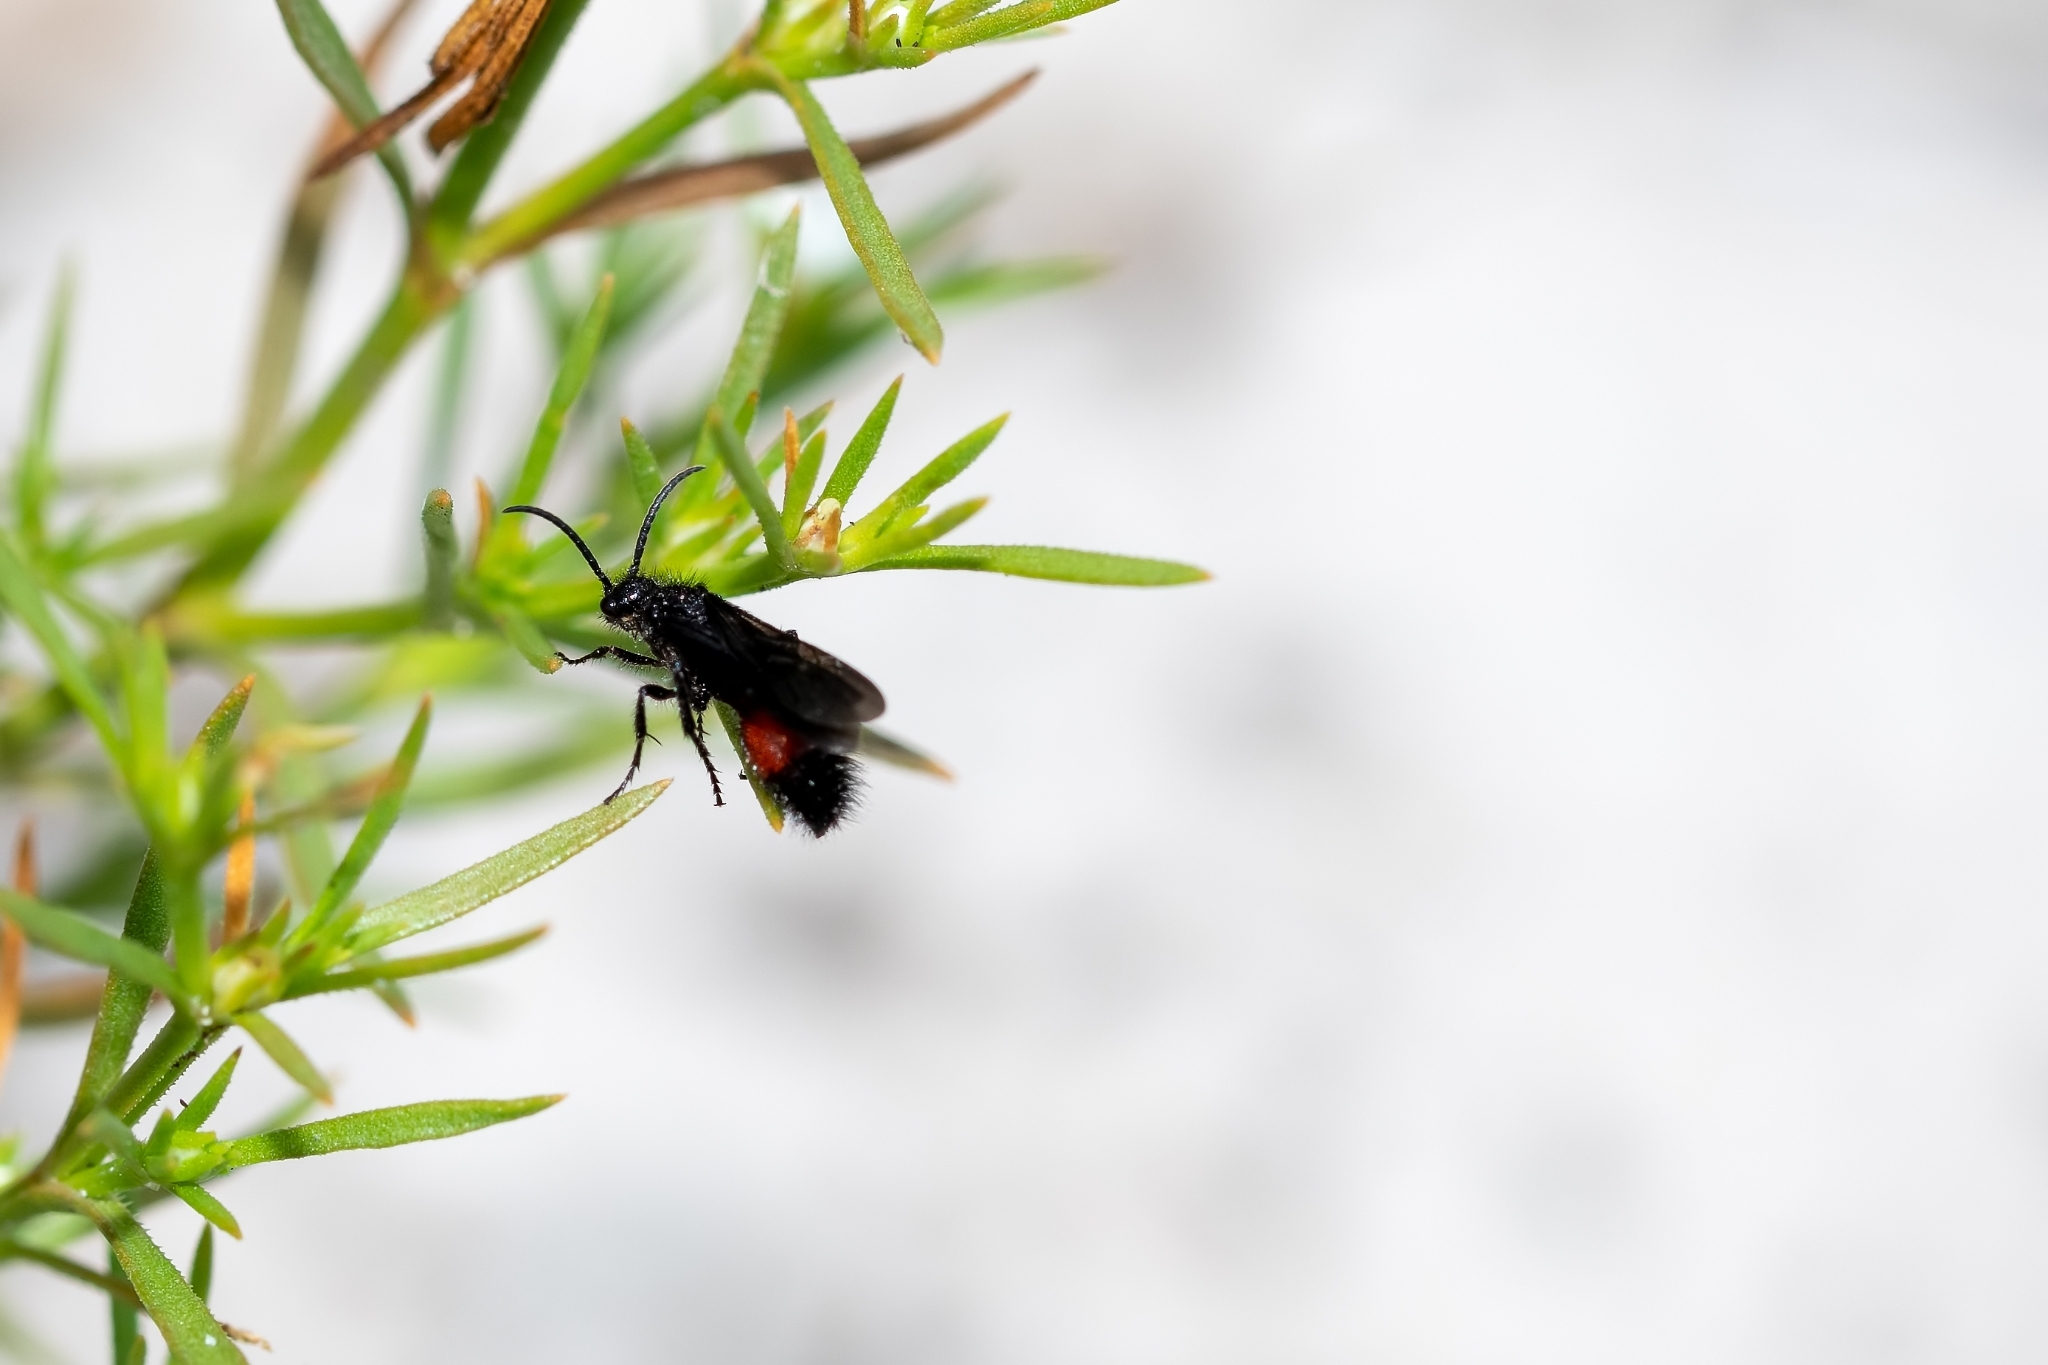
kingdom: Animalia
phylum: Arthropoda
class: Insecta
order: Hymenoptera
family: Mutillidae
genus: Dasymutilla
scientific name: Dasymutilla
